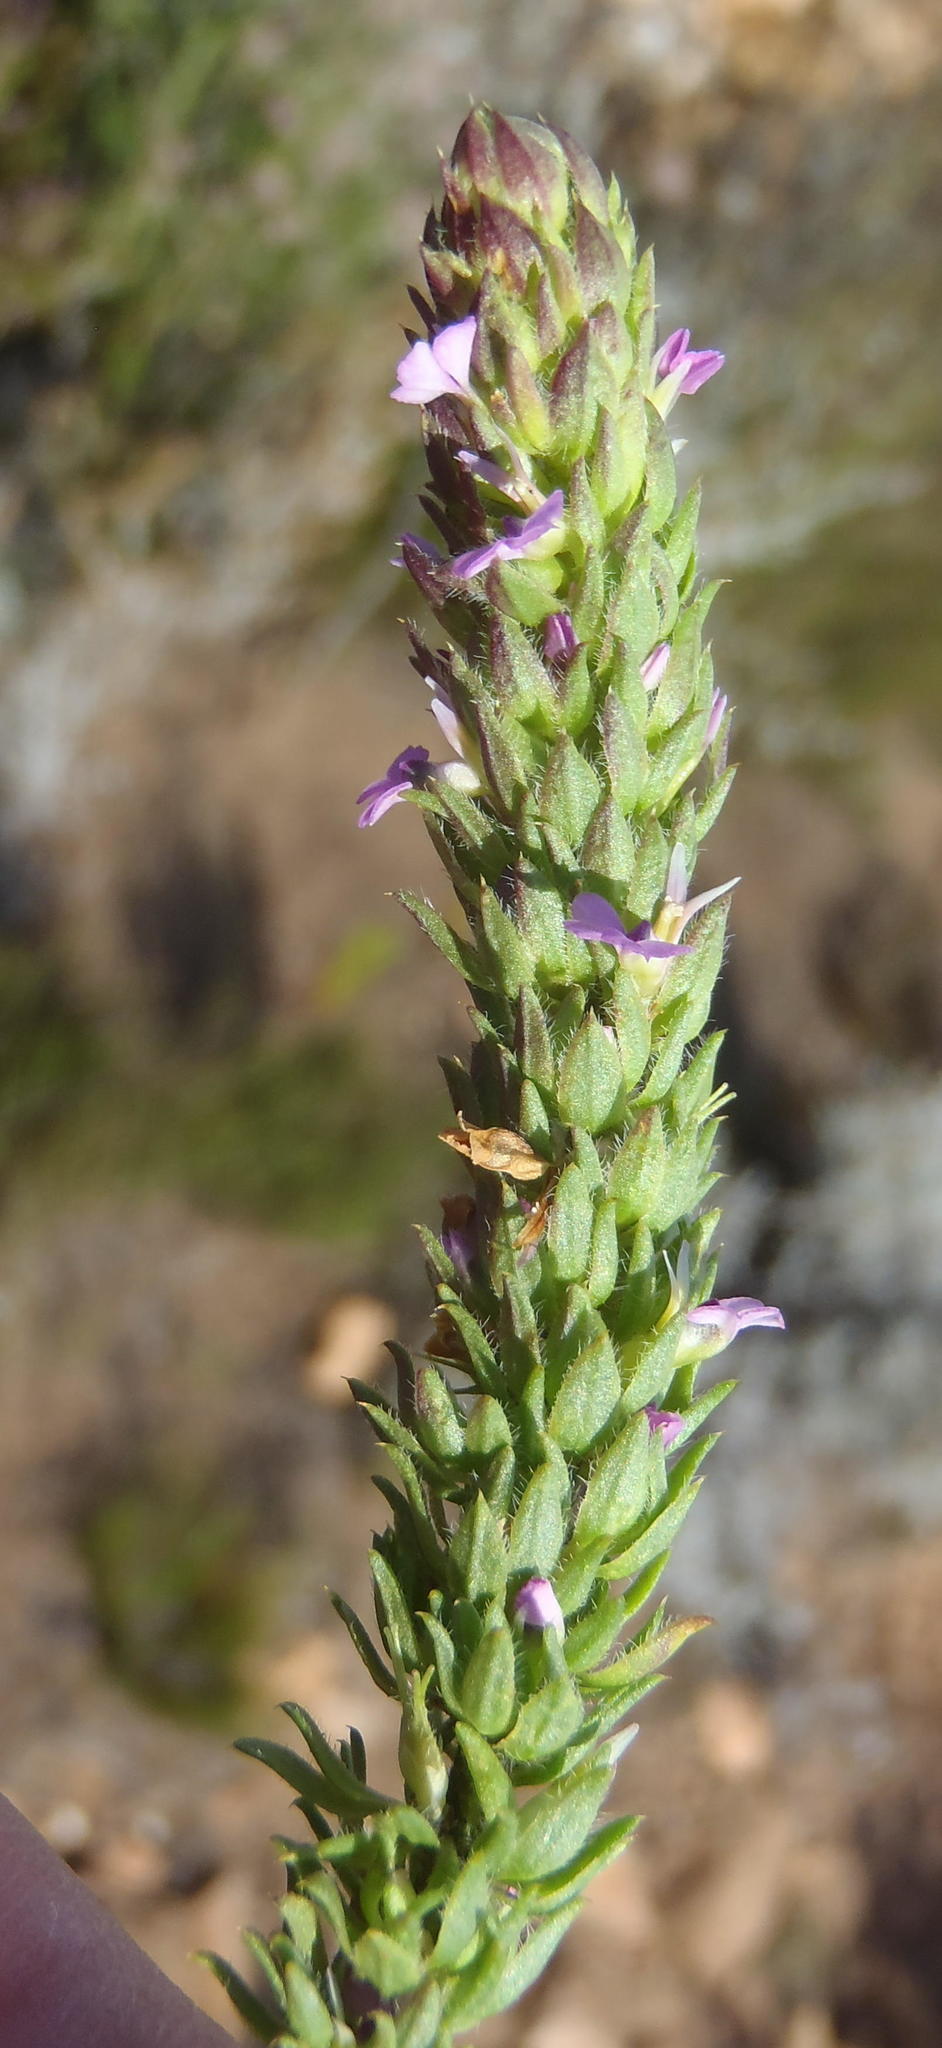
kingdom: Plantae
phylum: Tracheophyta
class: Magnoliopsida
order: Fabales
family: Polygalaceae
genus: Muraltia
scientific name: Muraltia squarrosa
